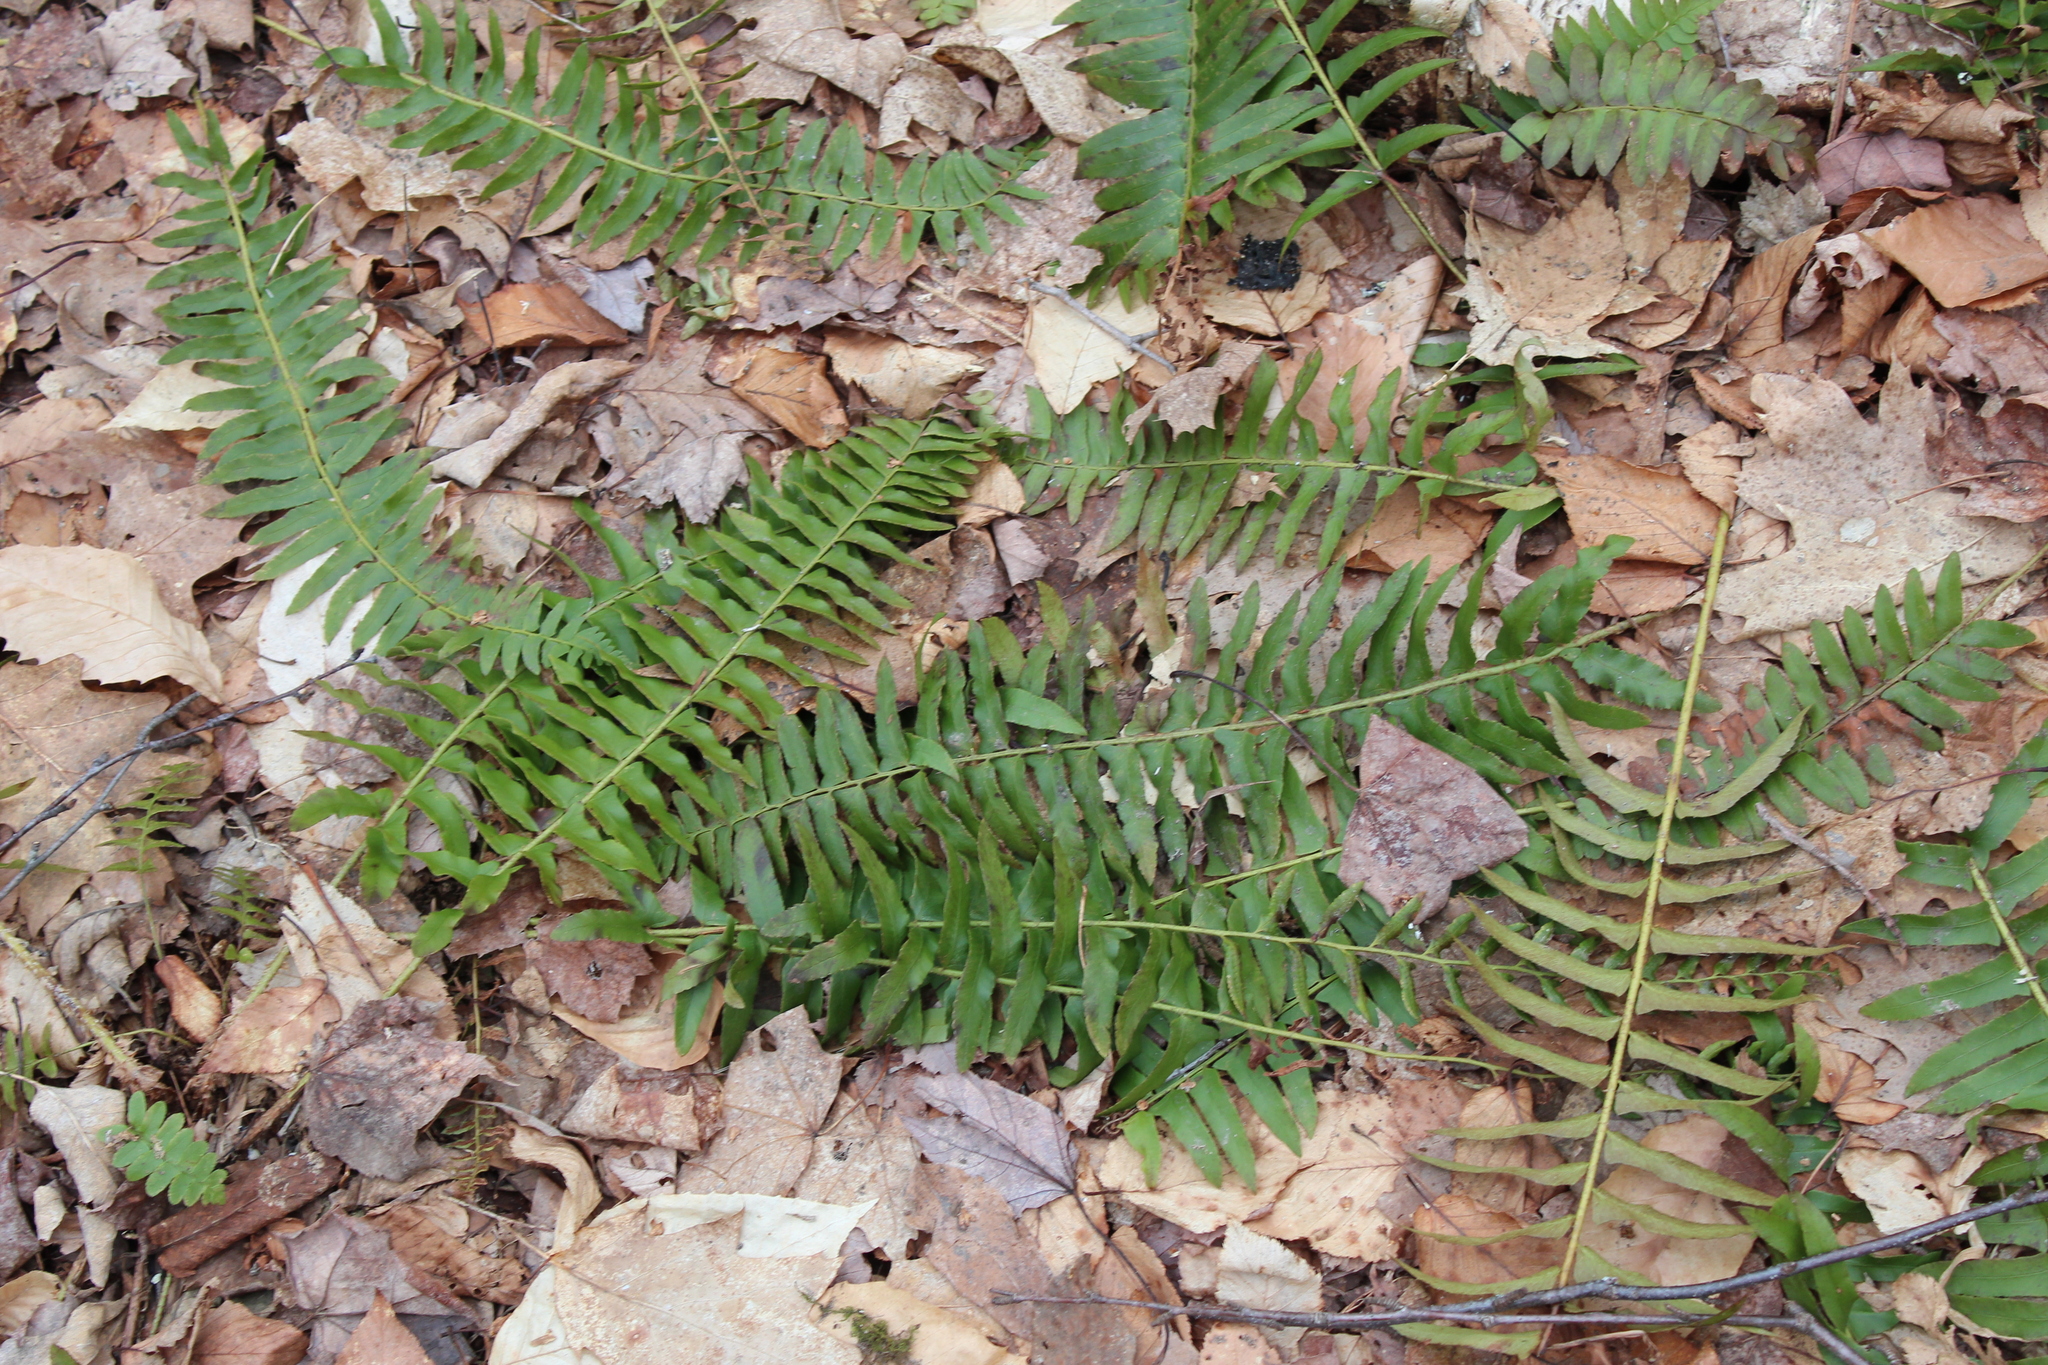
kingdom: Plantae
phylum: Tracheophyta
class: Polypodiopsida
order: Polypodiales
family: Dryopteridaceae
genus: Polystichum
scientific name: Polystichum acrostichoides
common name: Christmas fern
